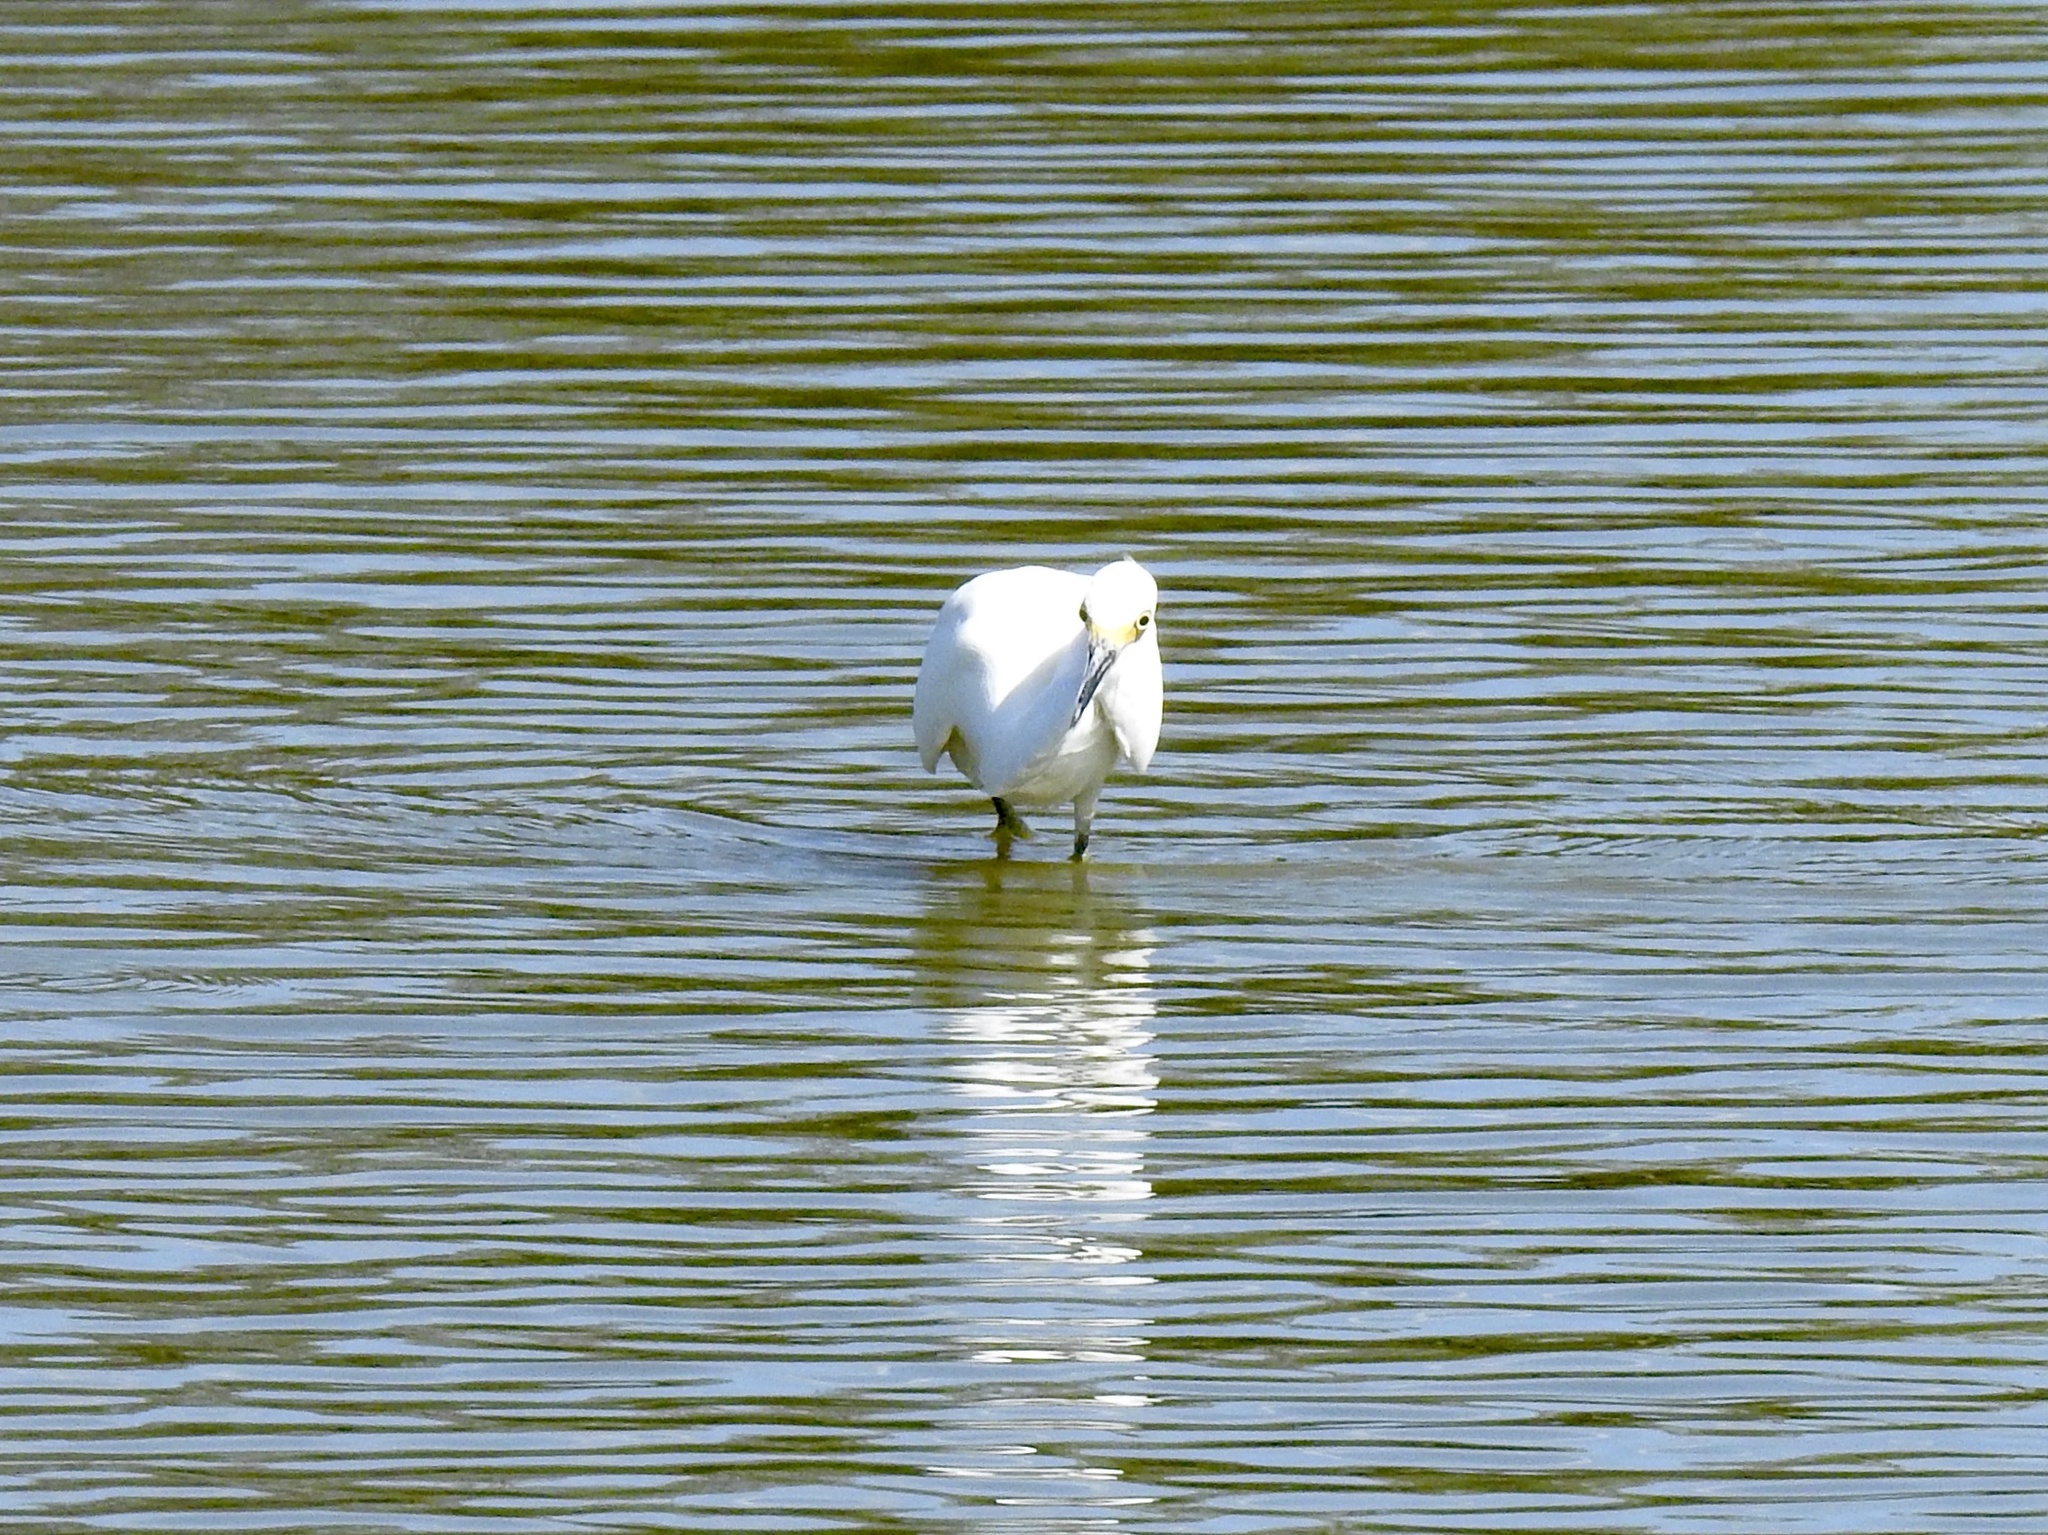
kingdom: Animalia
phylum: Chordata
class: Aves
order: Pelecaniformes
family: Ardeidae
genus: Egretta
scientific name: Egretta thula
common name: Snowy egret
